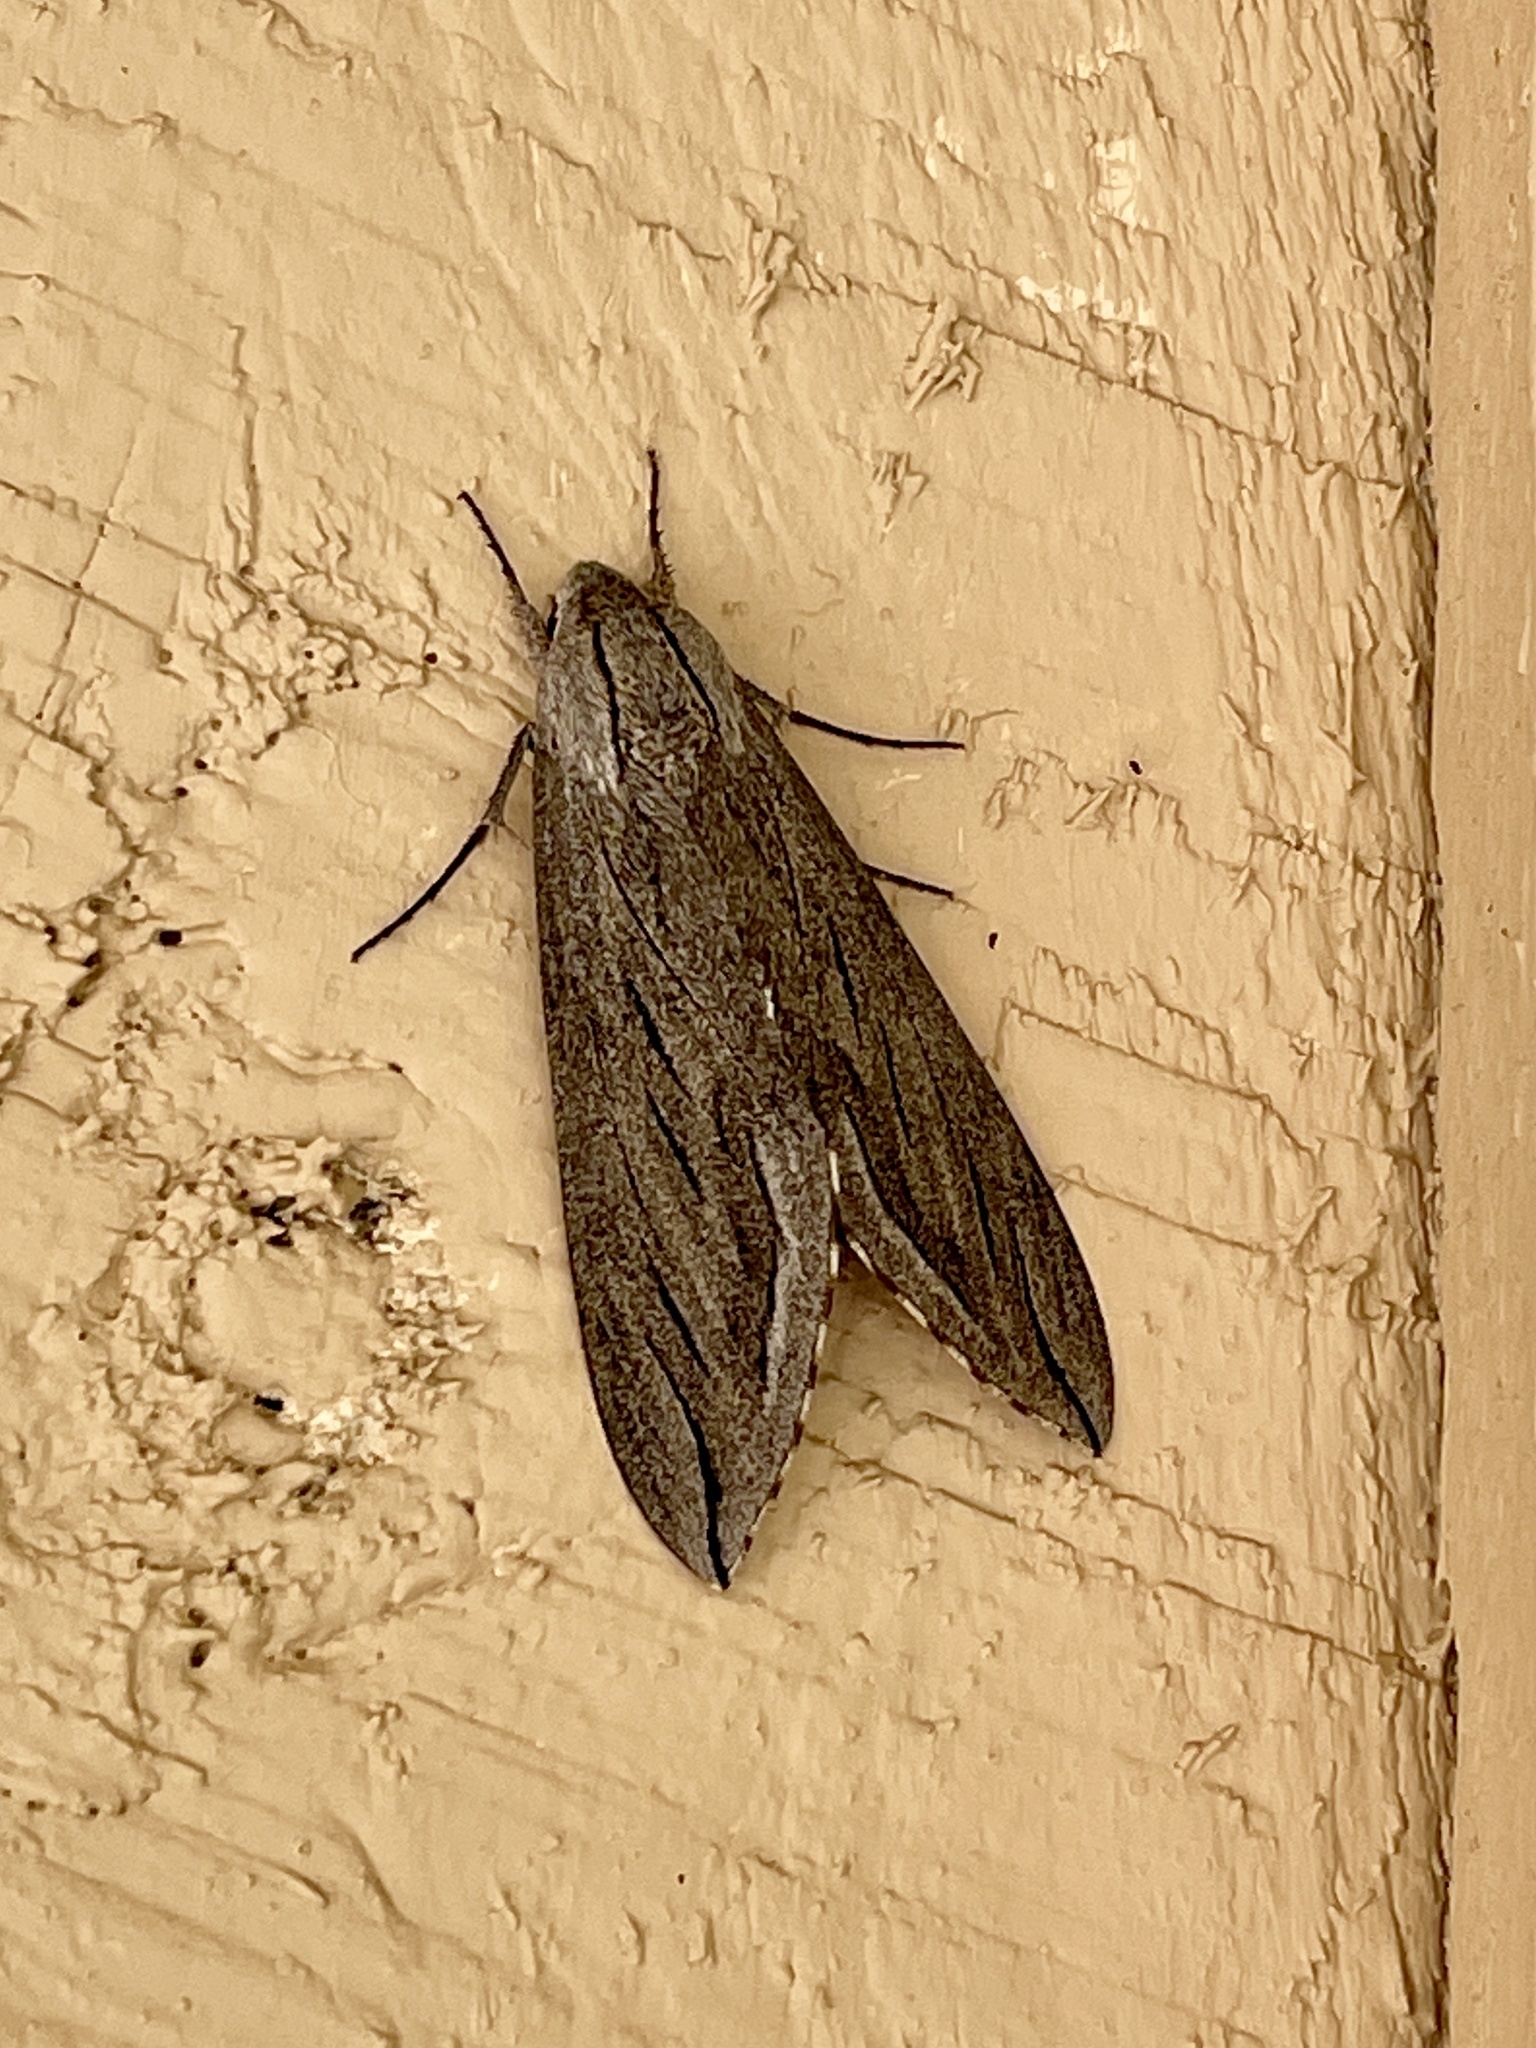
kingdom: Animalia
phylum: Arthropoda
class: Insecta
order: Lepidoptera
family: Sphingidae
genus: Sphinx
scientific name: Sphinx chersis
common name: Great ash sphinx
